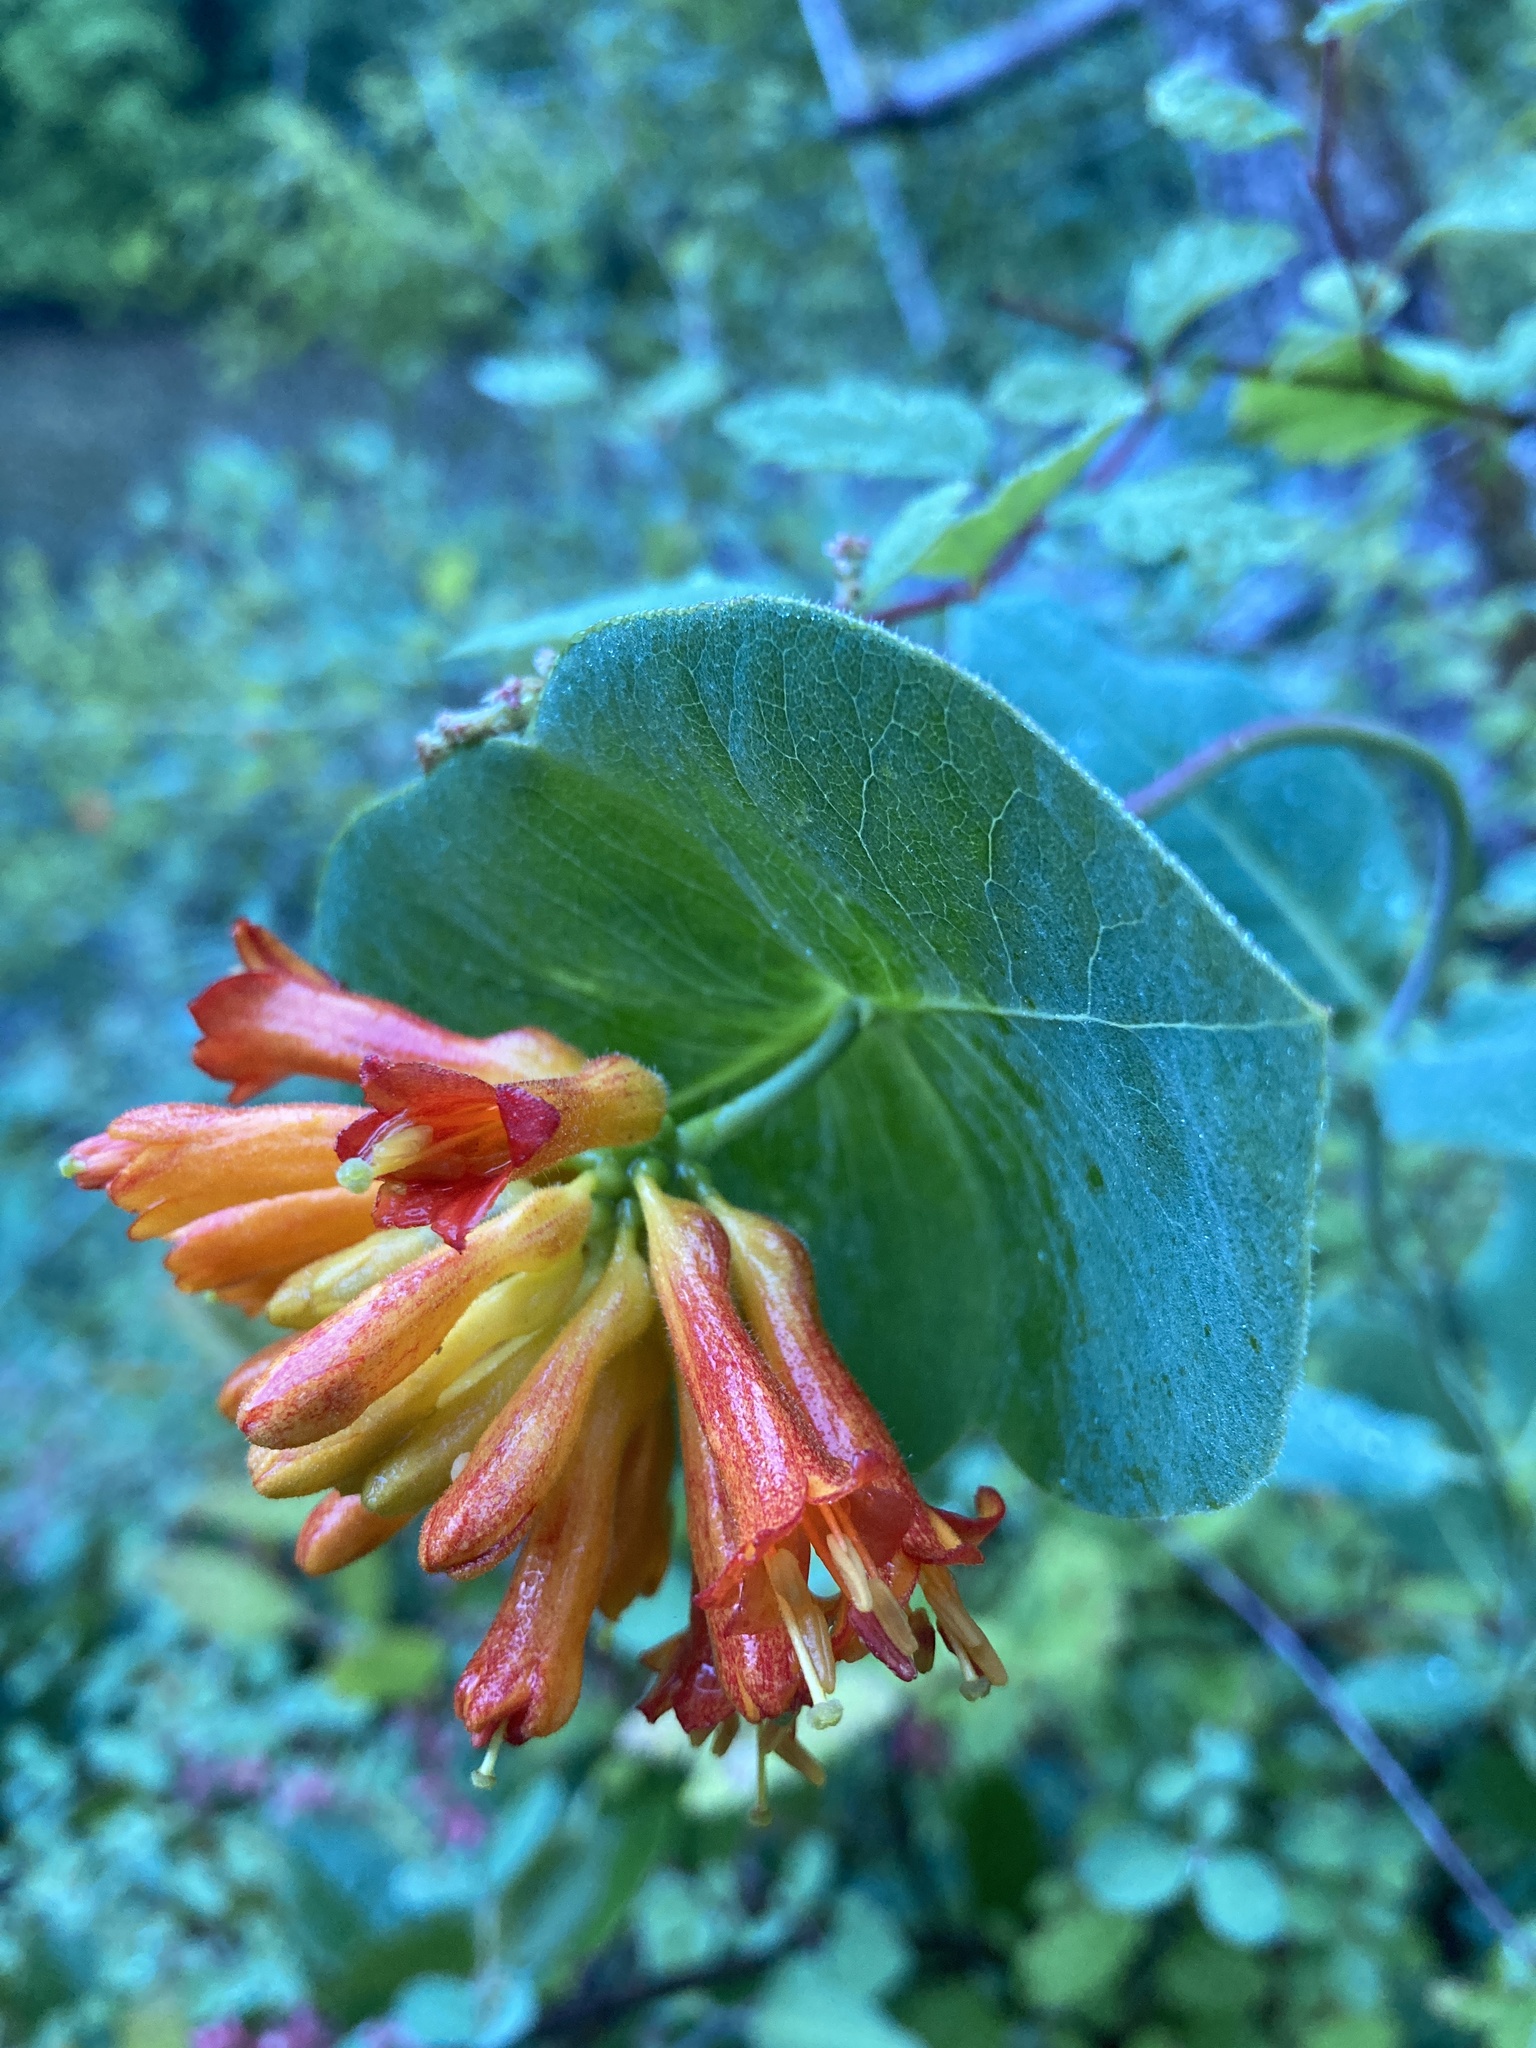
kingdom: Plantae
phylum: Tracheophyta
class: Magnoliopsida
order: Dipsacales
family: Caprifoliaceae
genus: Lonicera
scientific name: Lonicera ciliosa
